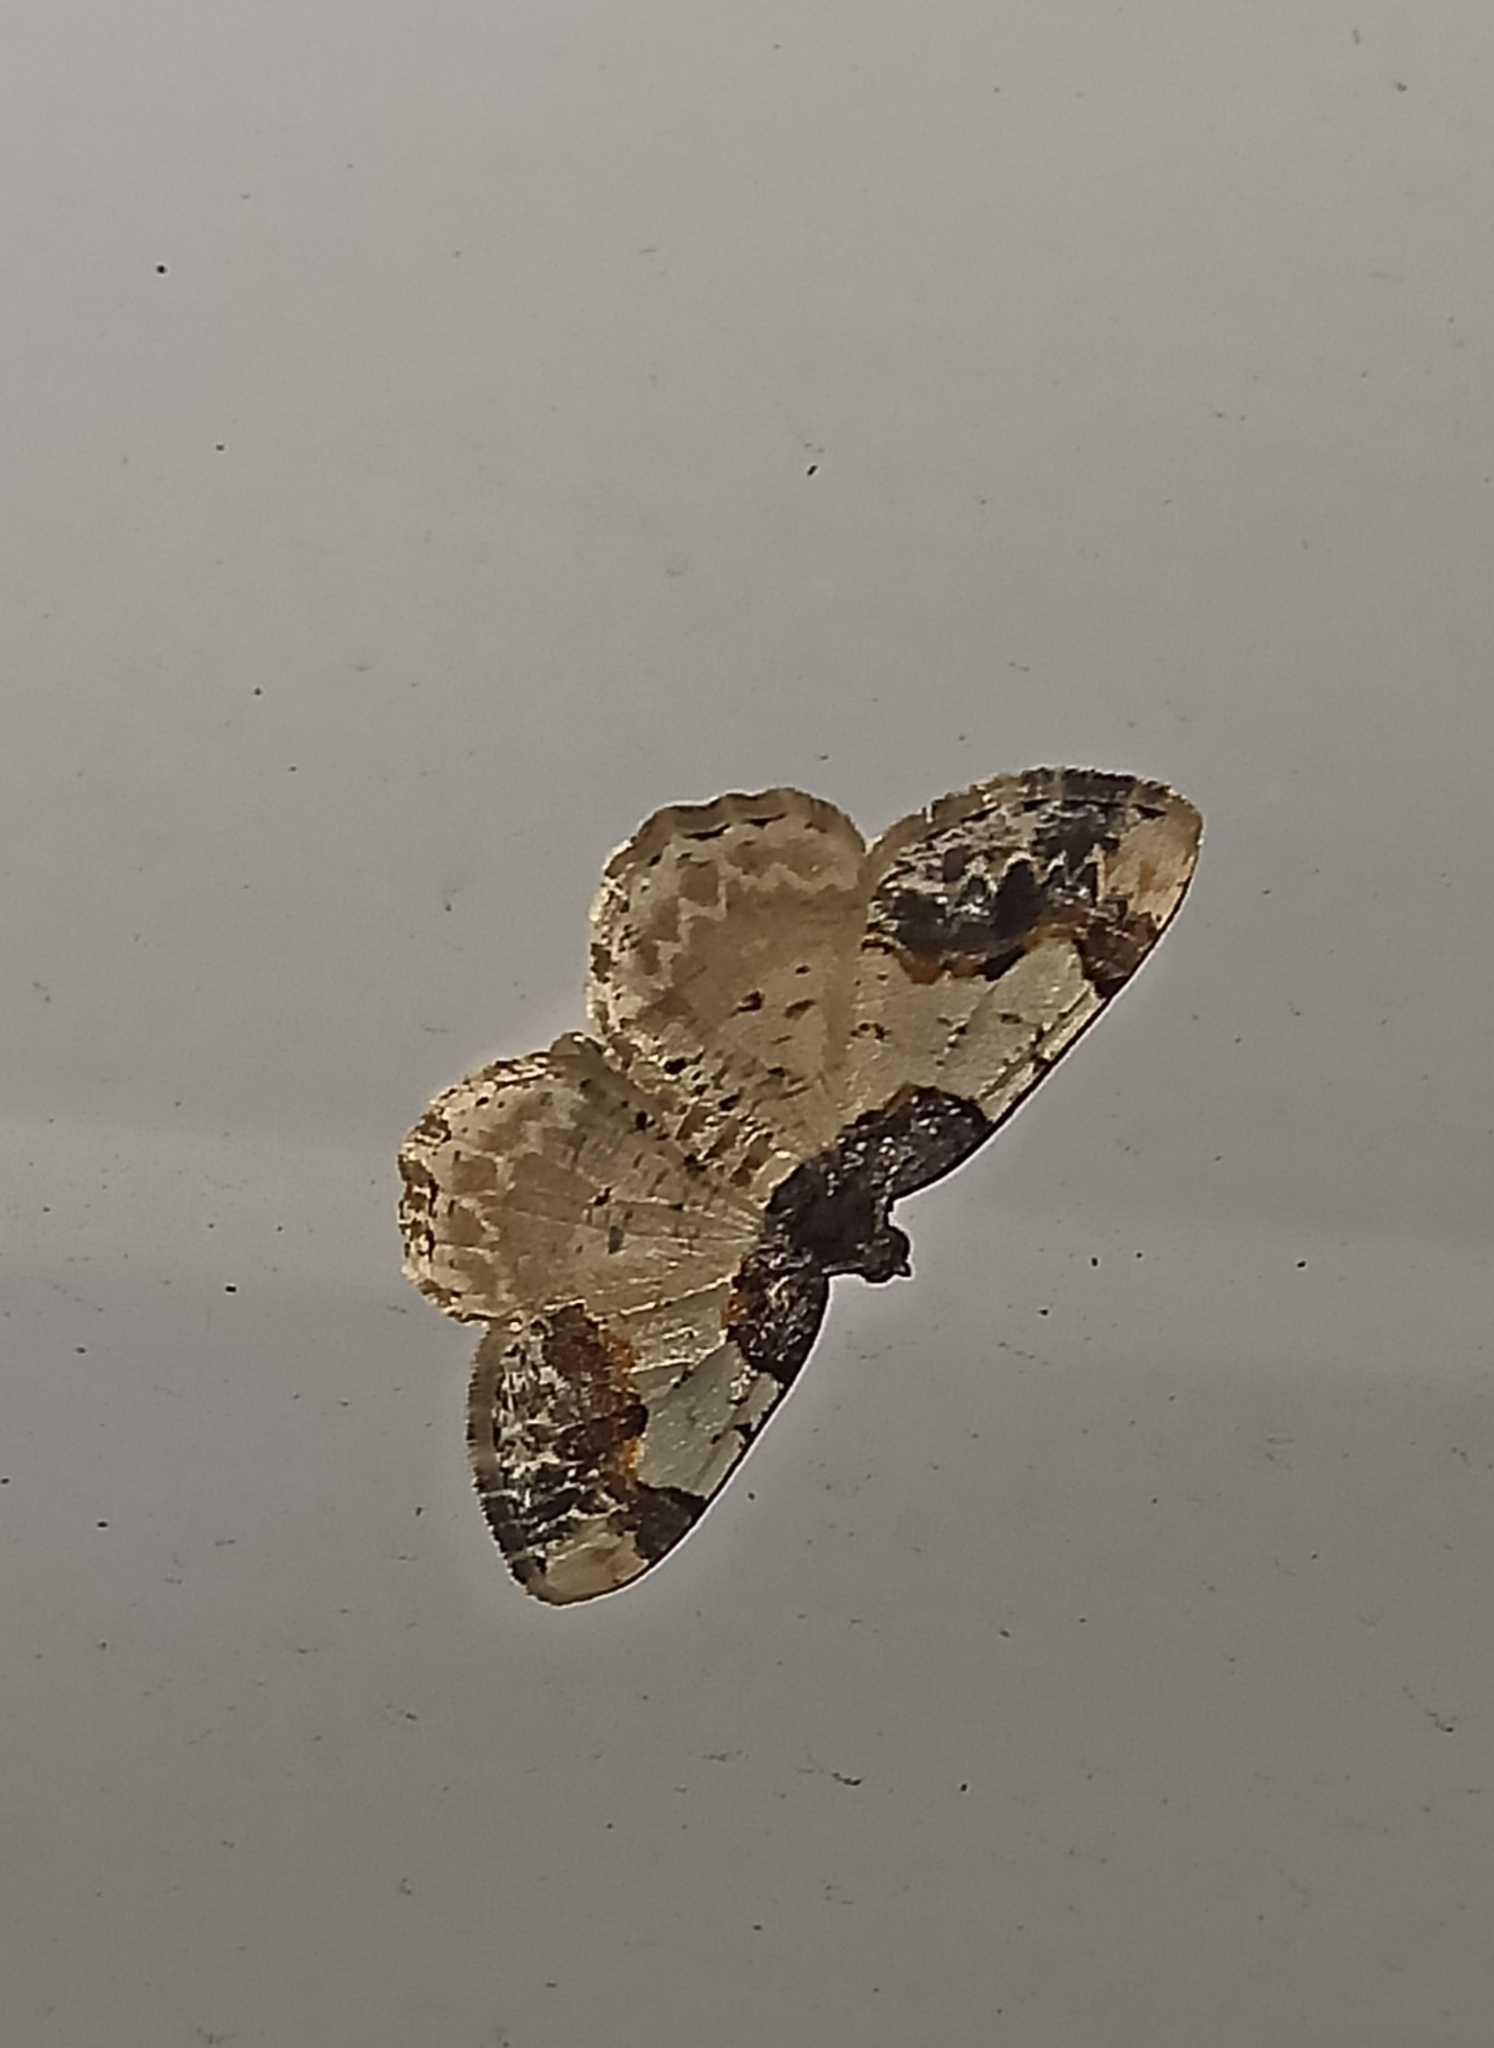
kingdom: Animalia
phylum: Arthropoda
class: Insecta
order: Lepidoptera
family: Geometridae
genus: Ligdia
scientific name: Ligdia adustata
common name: Scorched carpet
